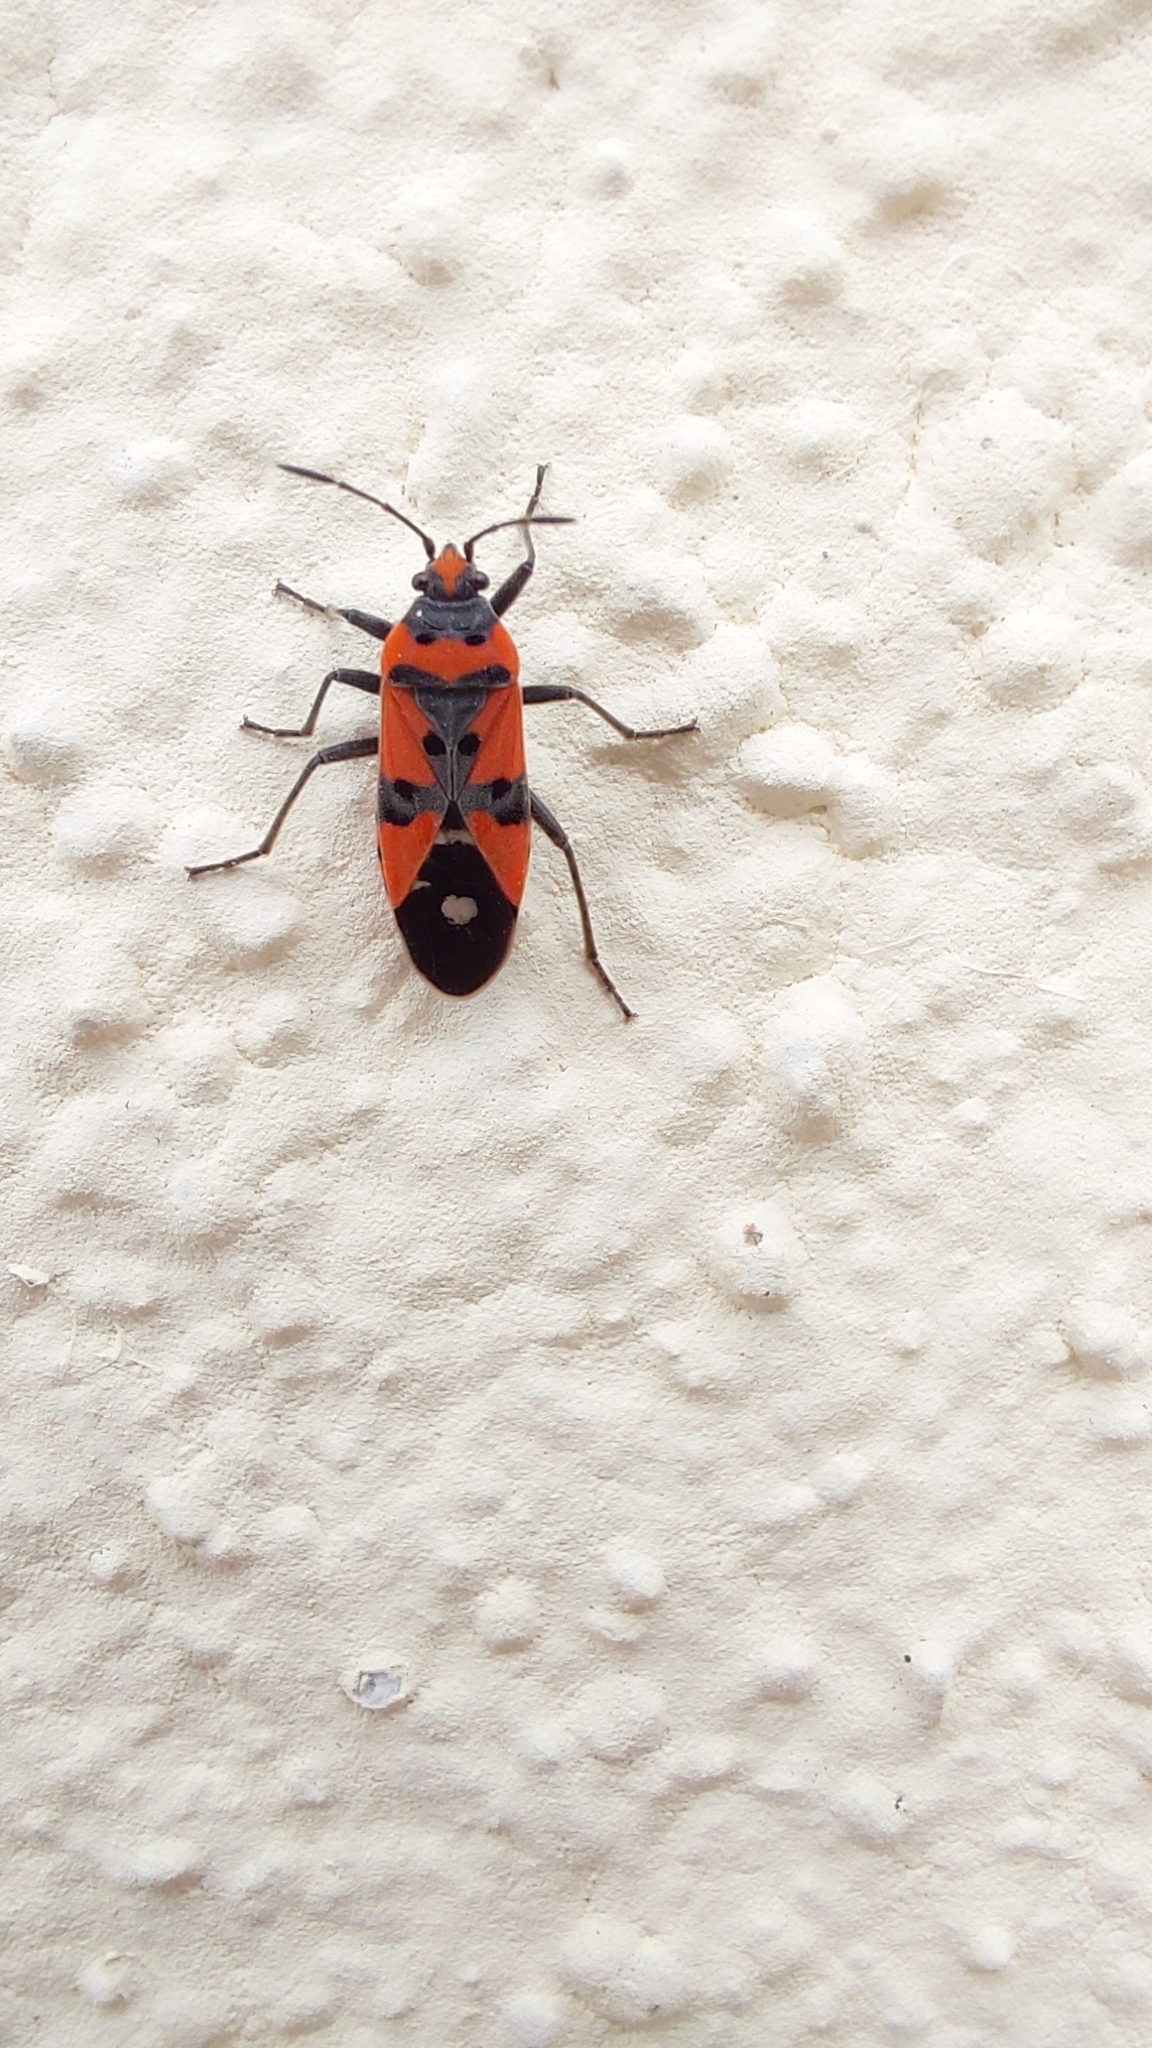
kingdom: Animalia
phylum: Arthropoda
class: Insecta
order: Hemiptera
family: Lygaeidae
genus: Lygaeus
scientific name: Lygaeus
